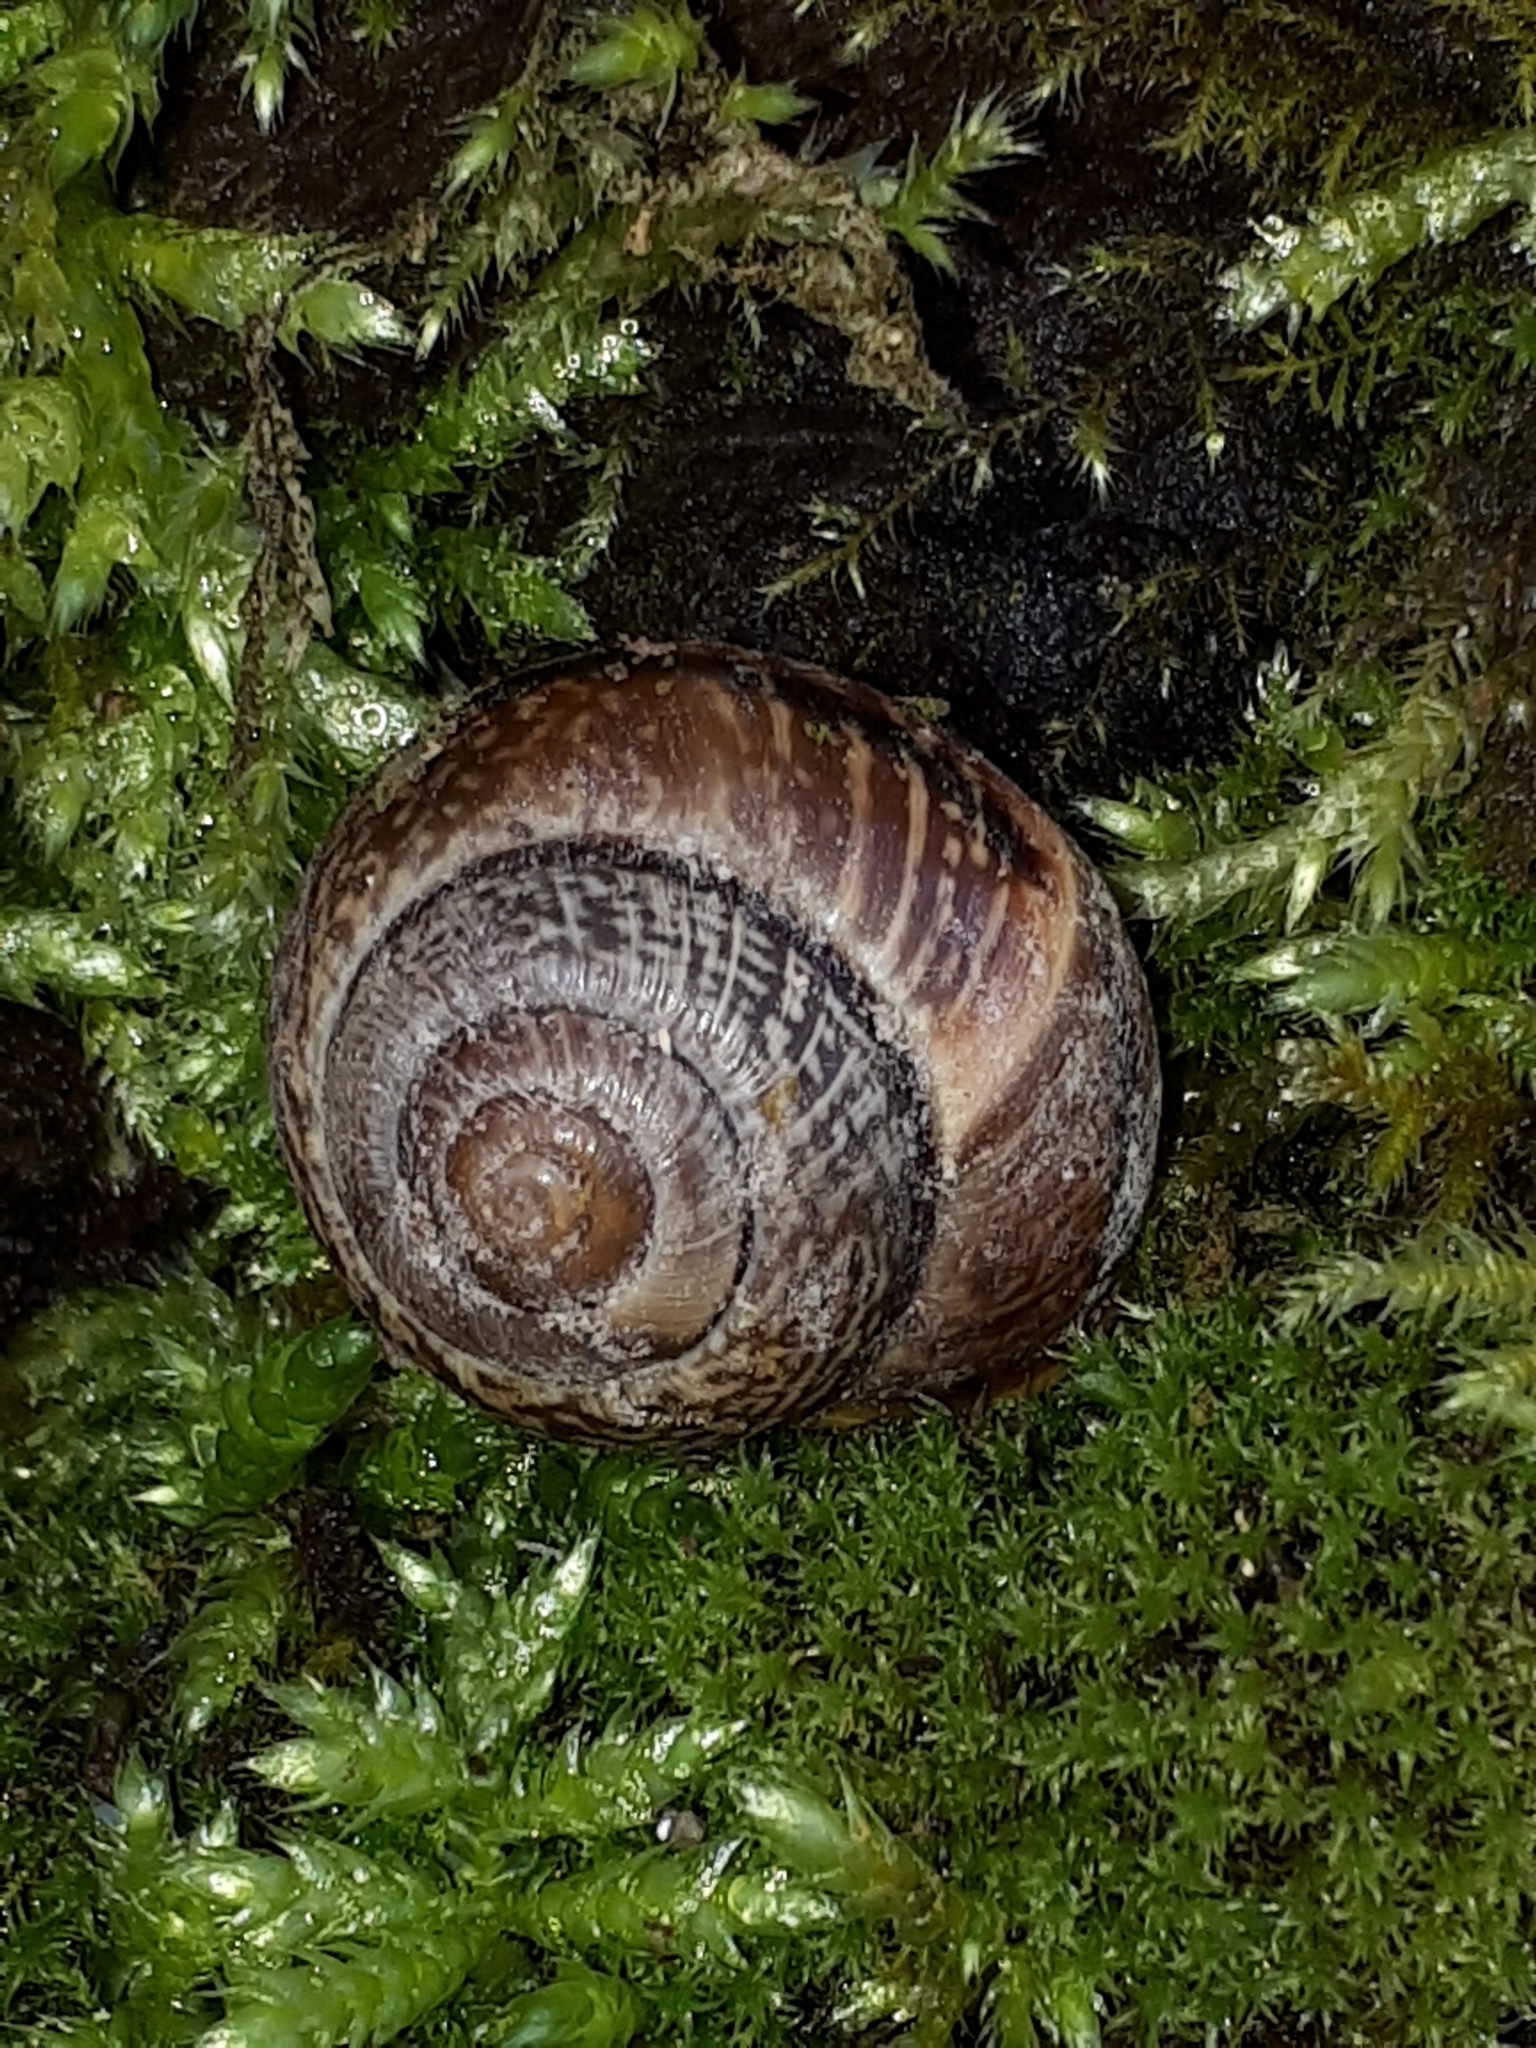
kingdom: Animalia
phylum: Mollusca
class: Gastropoda
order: Stylommatophora
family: Helicidae
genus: Arianta
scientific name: Arianta arbustorum
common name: Copse snail
